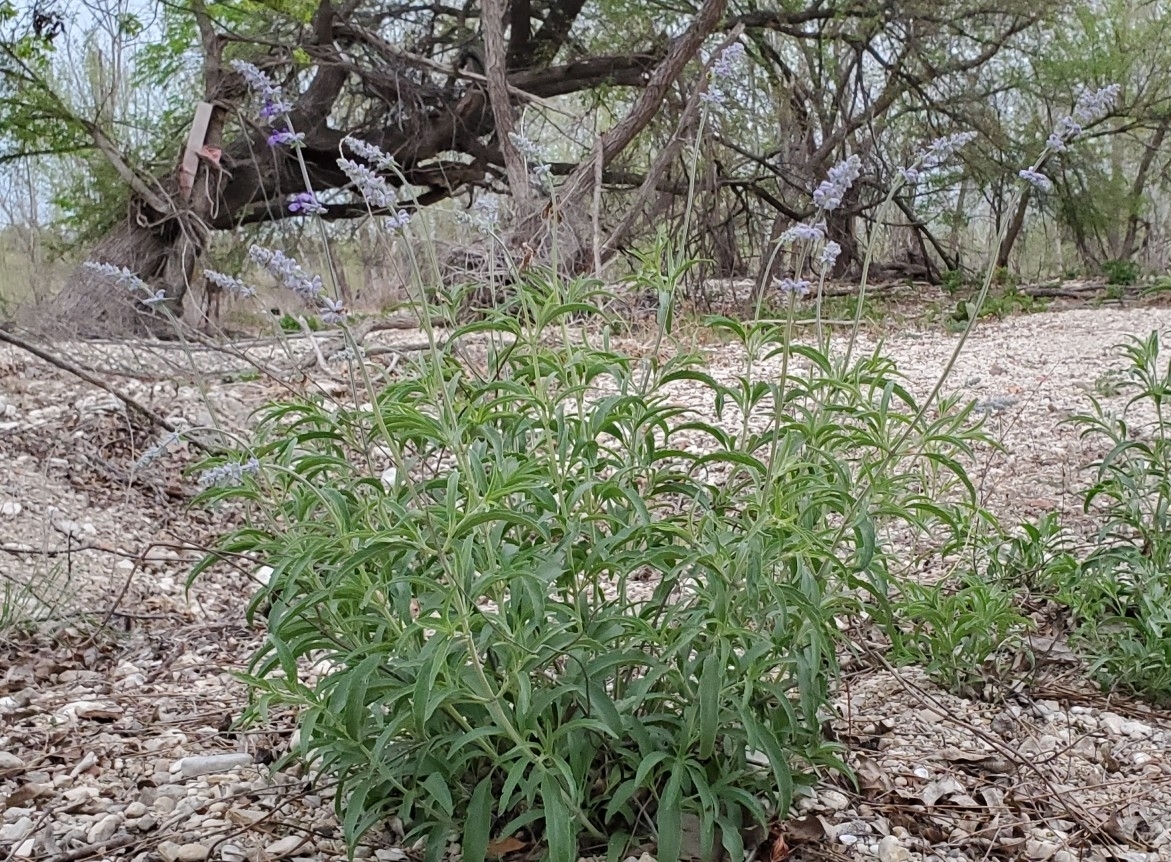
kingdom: Plantae
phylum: Tracheophyta
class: Magnoliopsida
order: Lamiales
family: Lamiaceae
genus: Salvia
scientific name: Salvia farinacea
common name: Mealy sage
